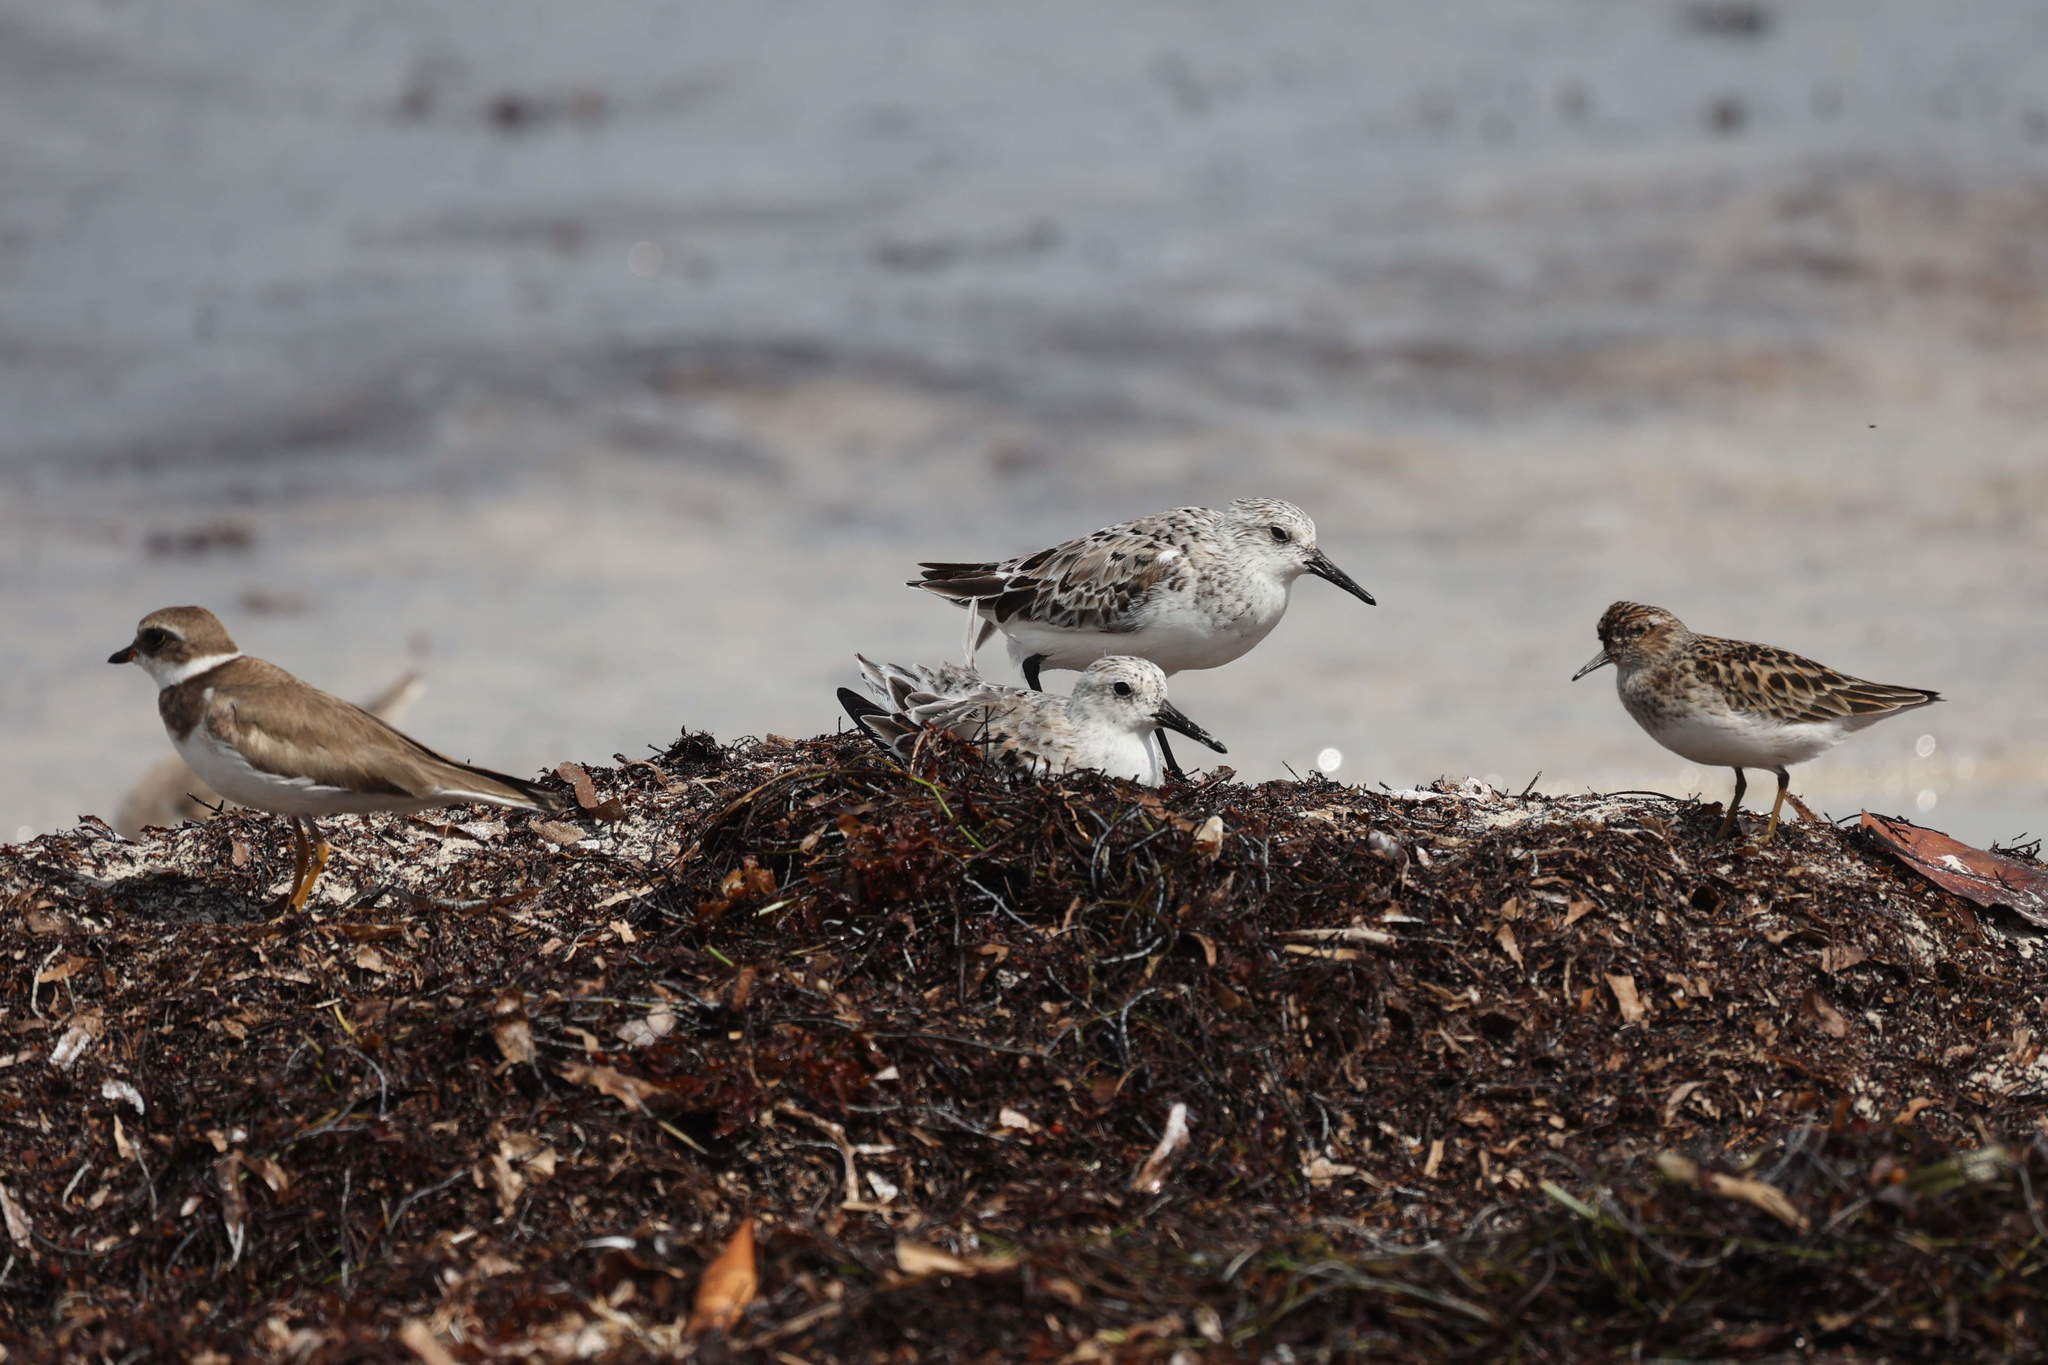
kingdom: Animalia
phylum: Chordata
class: Aves
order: Charadriiformes
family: Scolopacidae
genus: Calidris
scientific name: Calidris alba
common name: Sanderling
